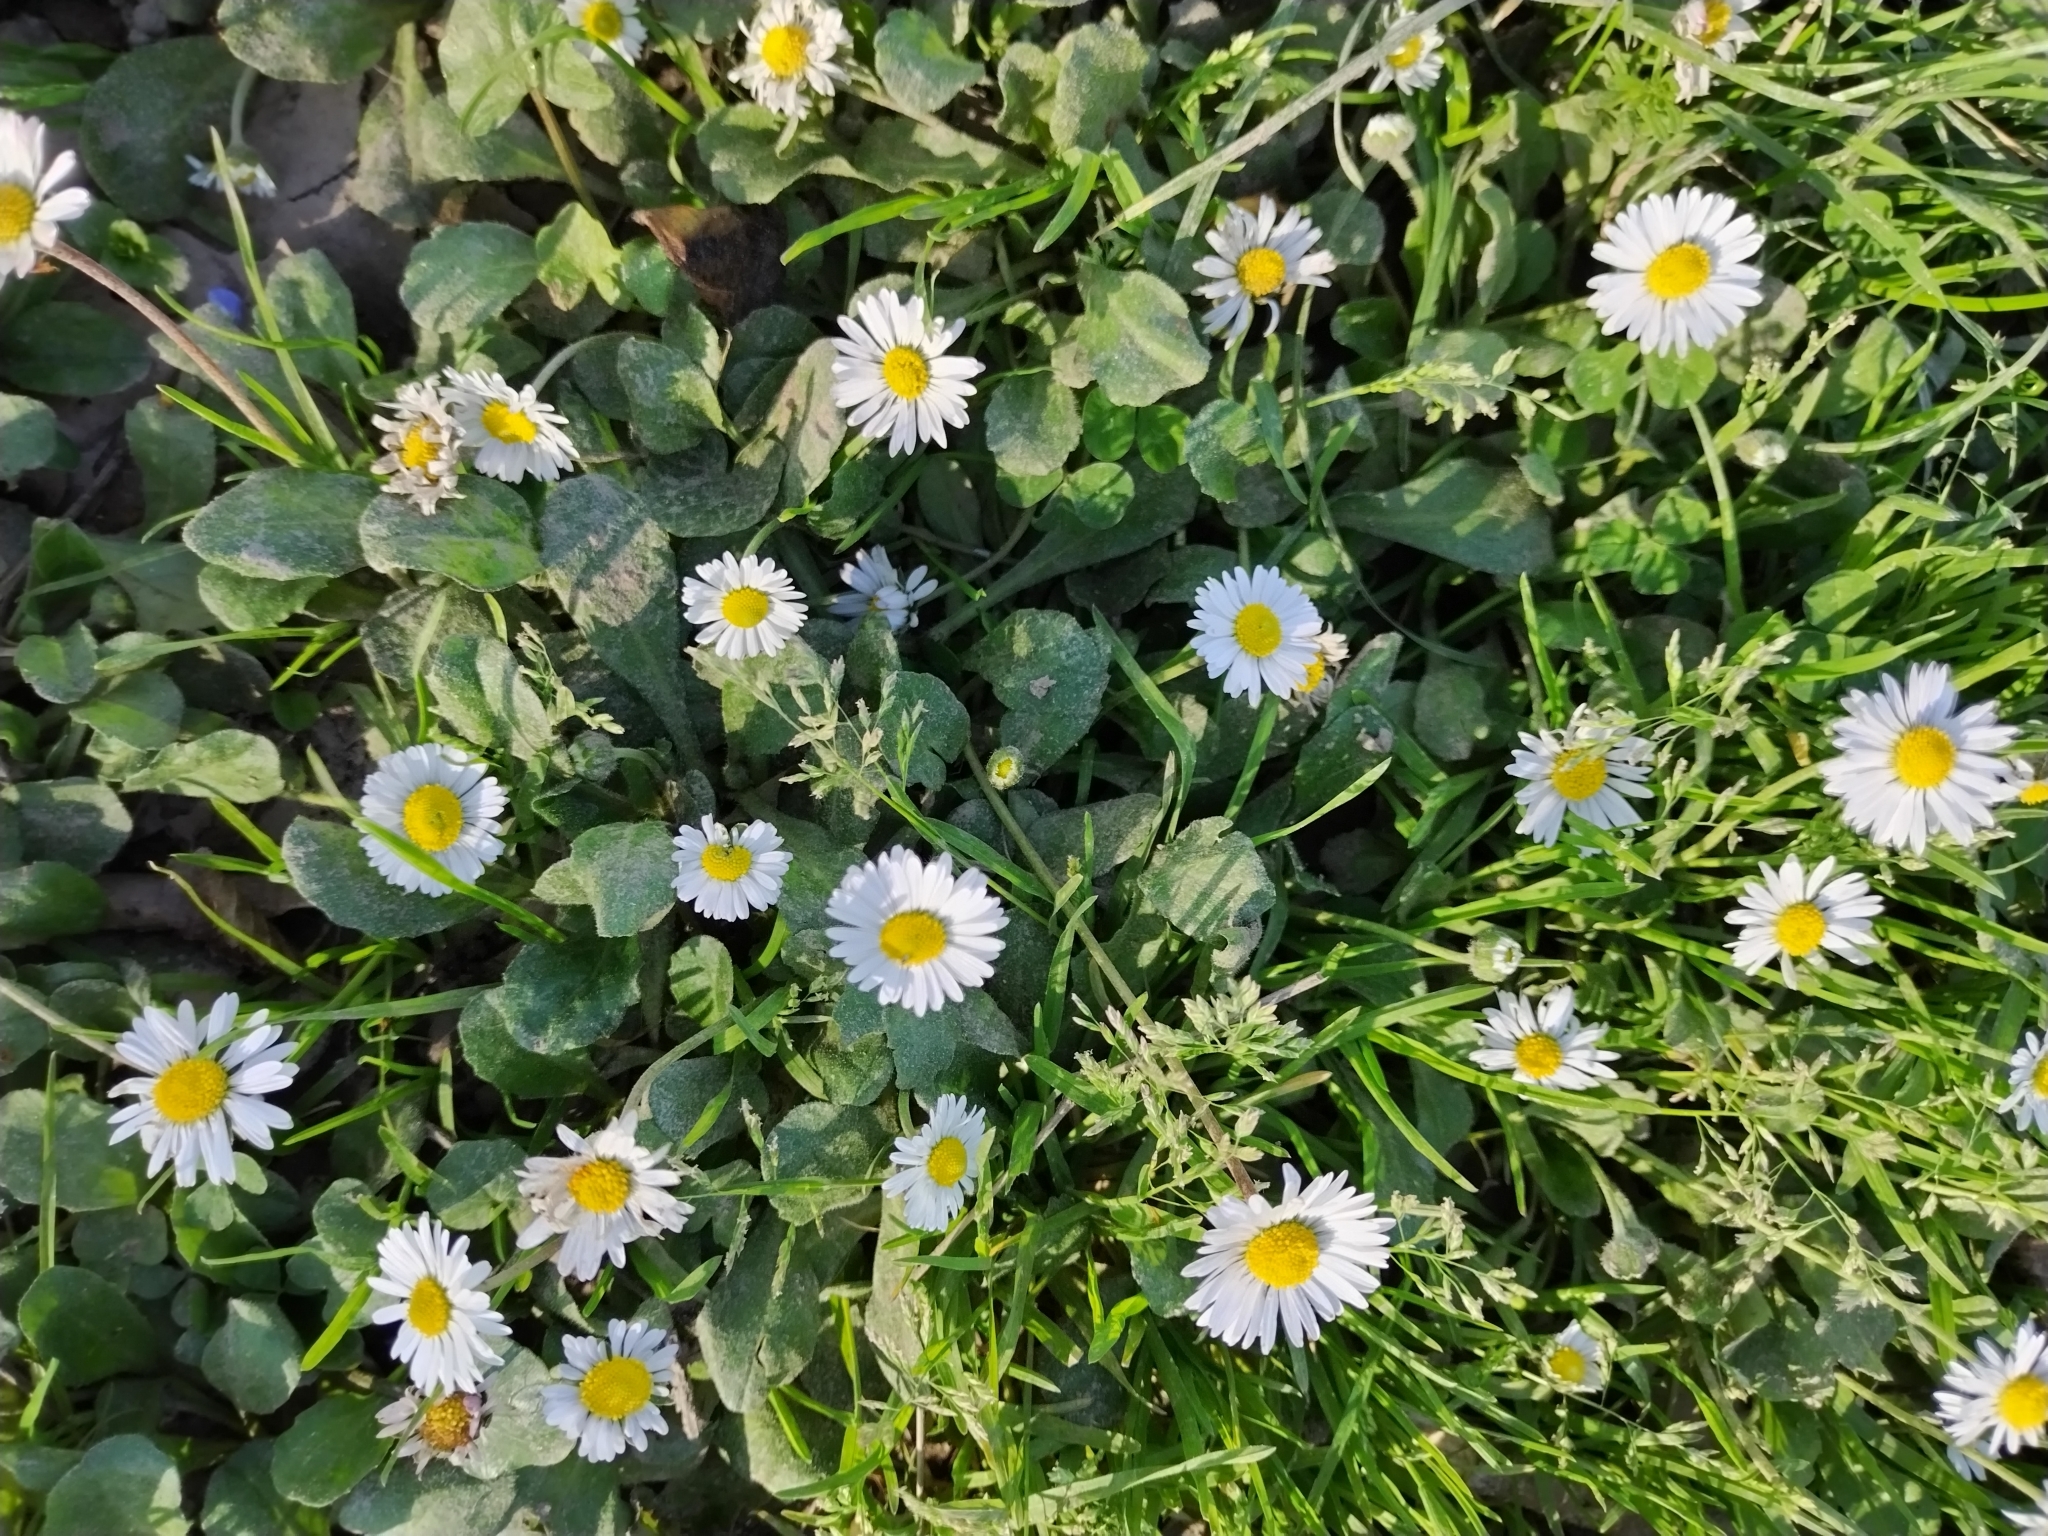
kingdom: Plantae
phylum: Tracheophyta
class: Magnoliopsida
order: Asterales
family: Asteraceae
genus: Bellis
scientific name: Bellis perennis
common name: Lawndaisy
